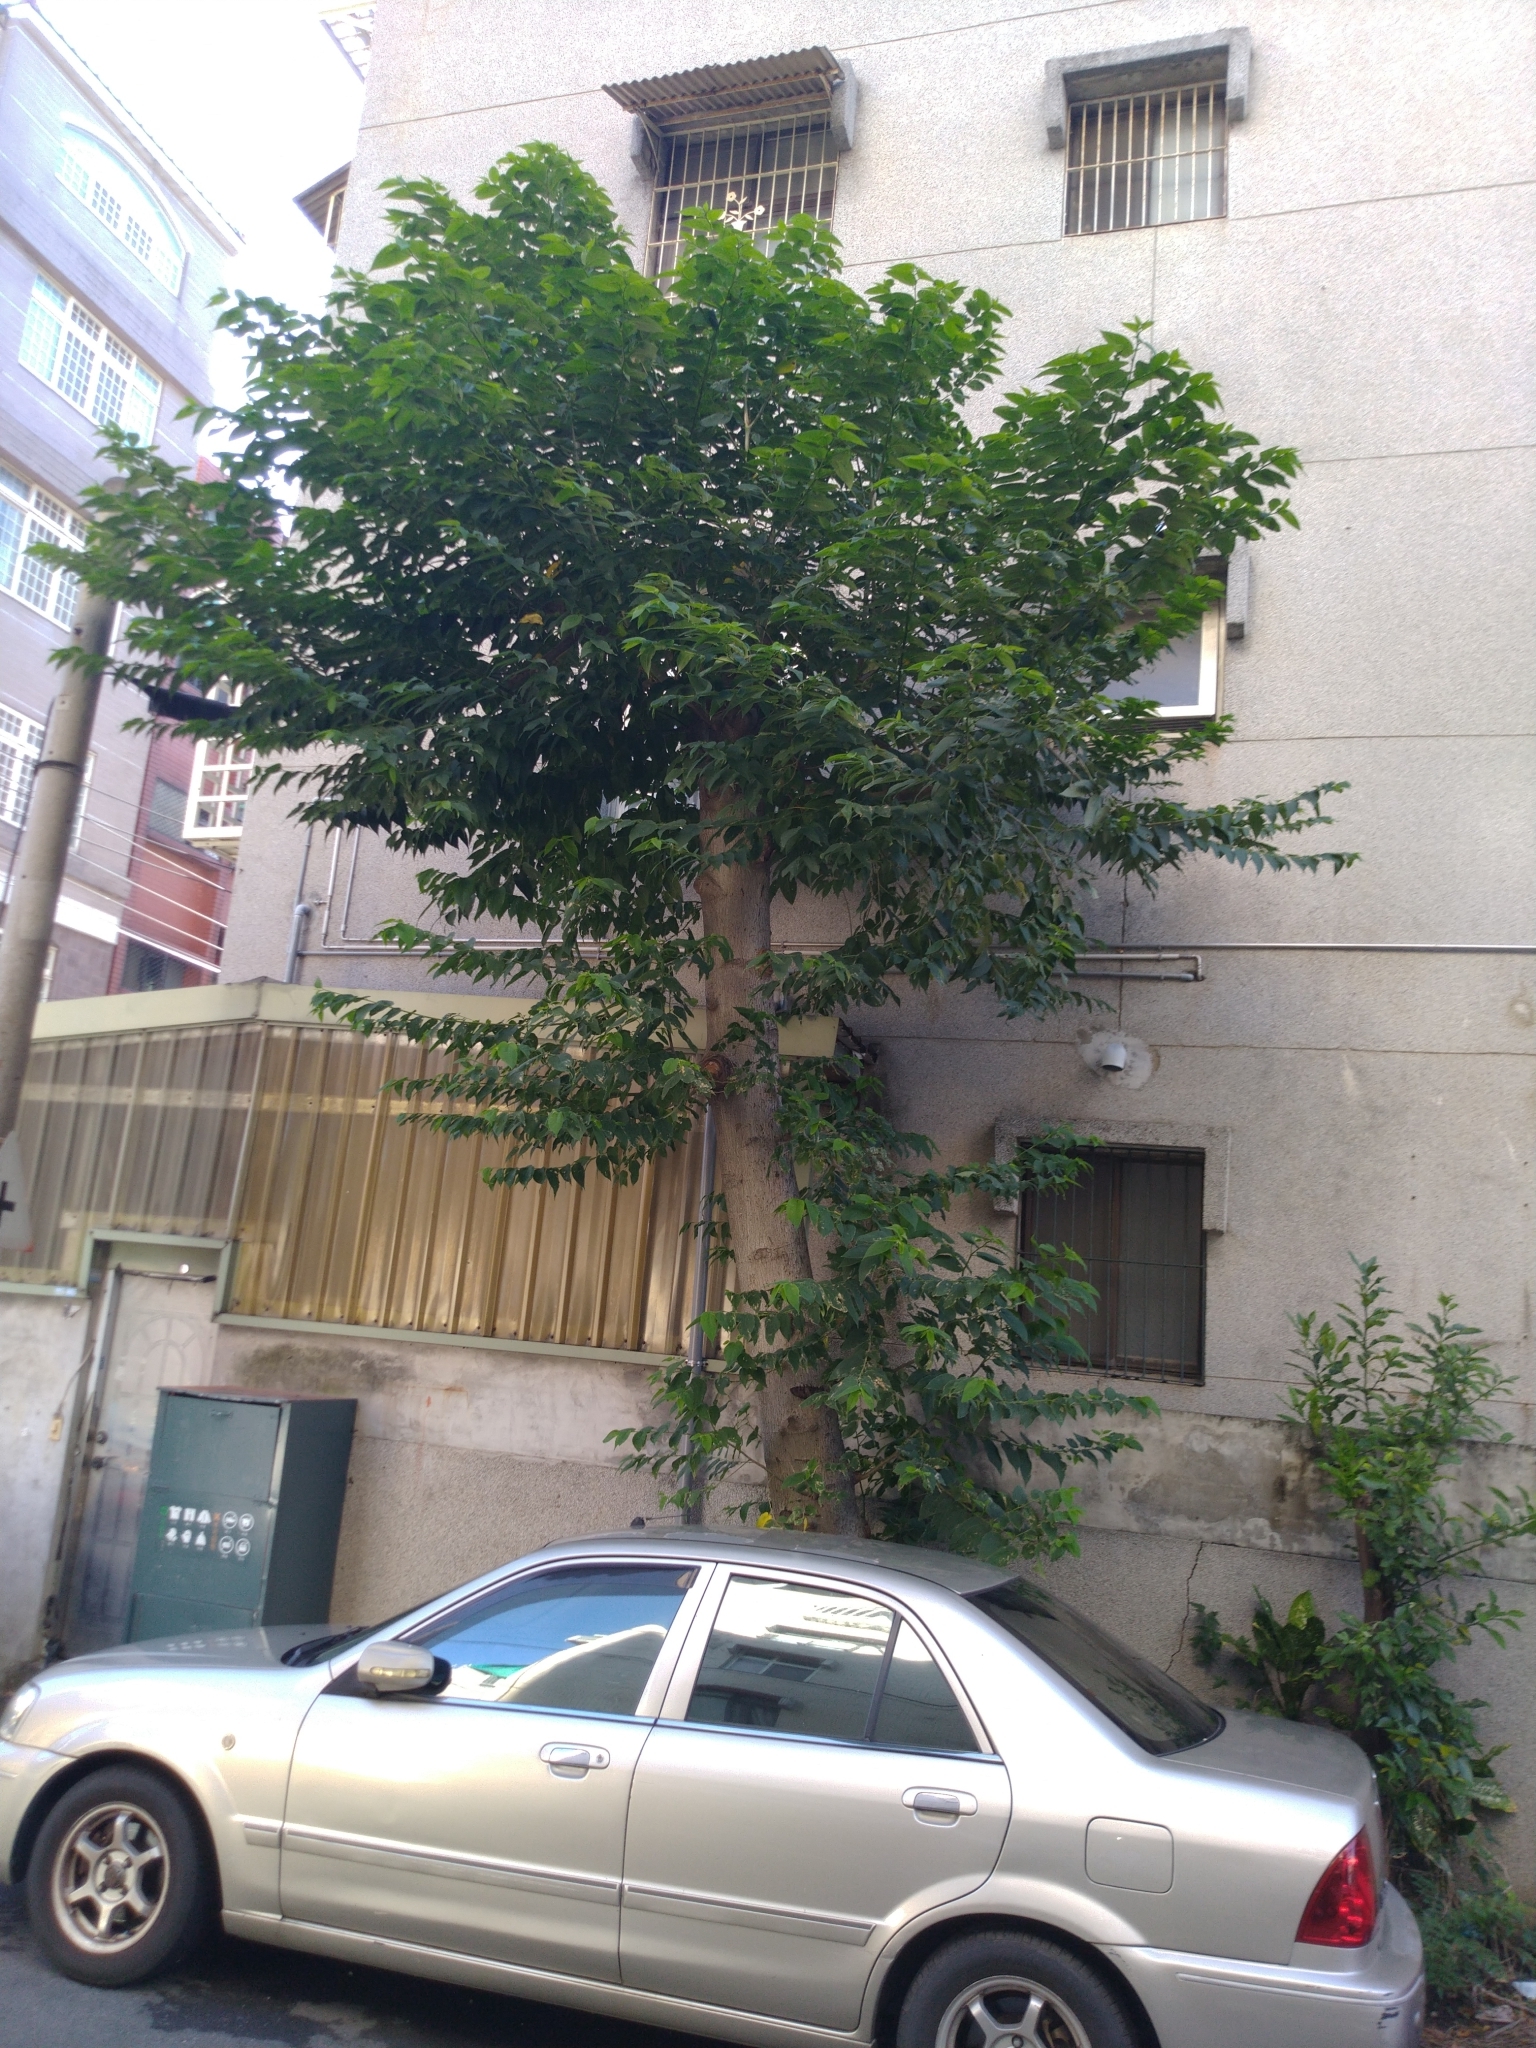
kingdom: Plantae
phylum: Tracheophyta
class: Magnoliopsida
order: Rosales
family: Cannabaceae
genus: Trema
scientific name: Trema orientale
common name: Indian charcoal tree
